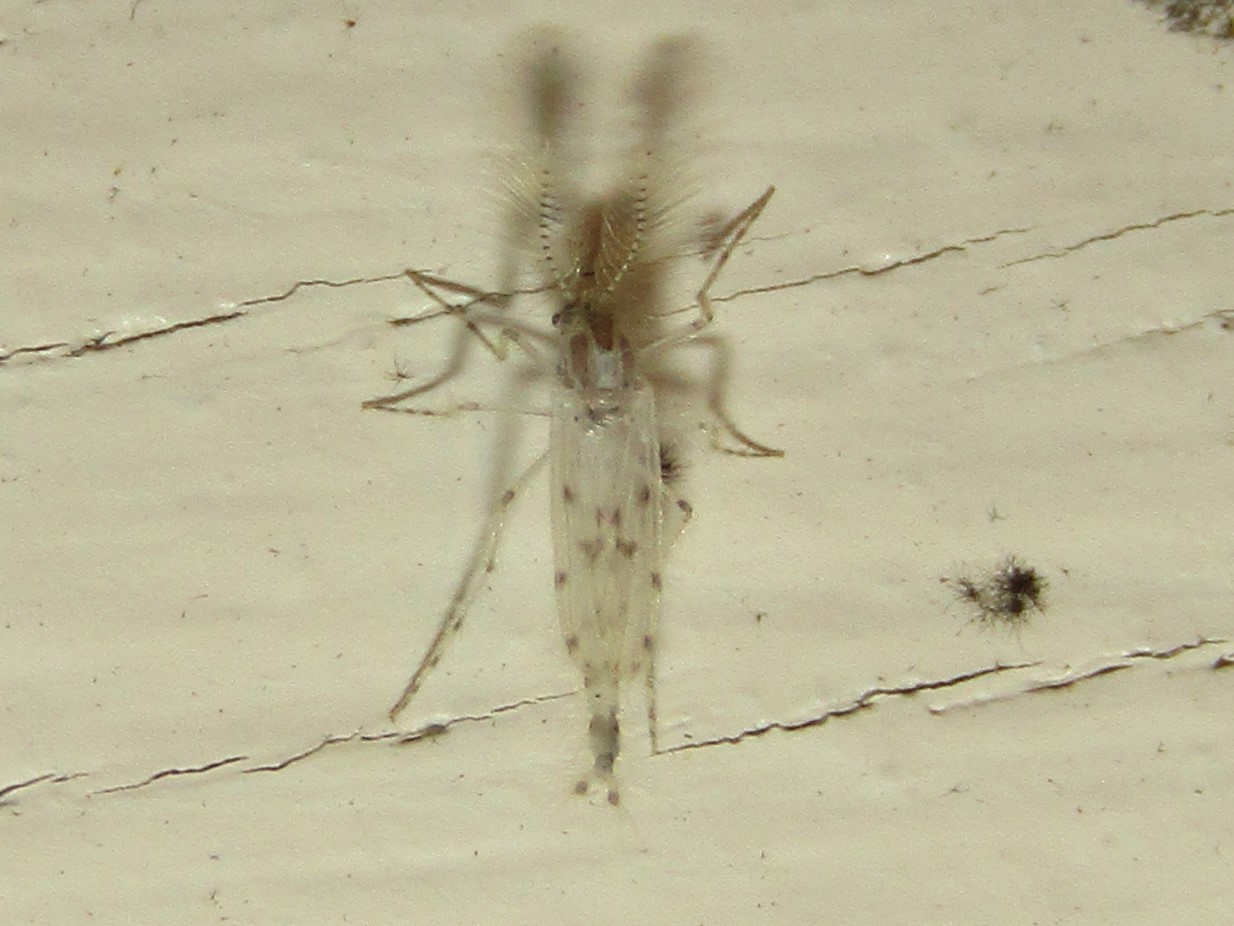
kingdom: Animalia
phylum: Arthropoda
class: Insecta
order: Diptera
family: Chaoboridae
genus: Chaoborus
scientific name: Chaoborus albatus
